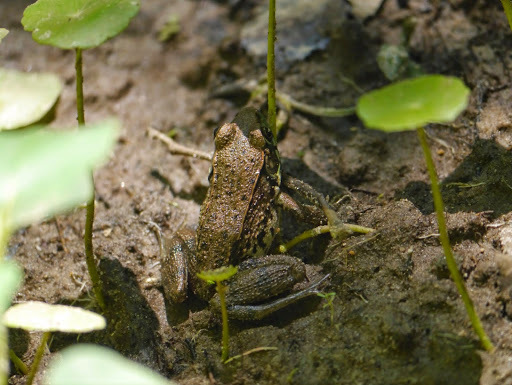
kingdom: Animalia
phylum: Chordata
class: Amphibia
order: Anura
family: Ranidae
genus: Lithobates
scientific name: Lithobates clamitans
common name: Green frog
